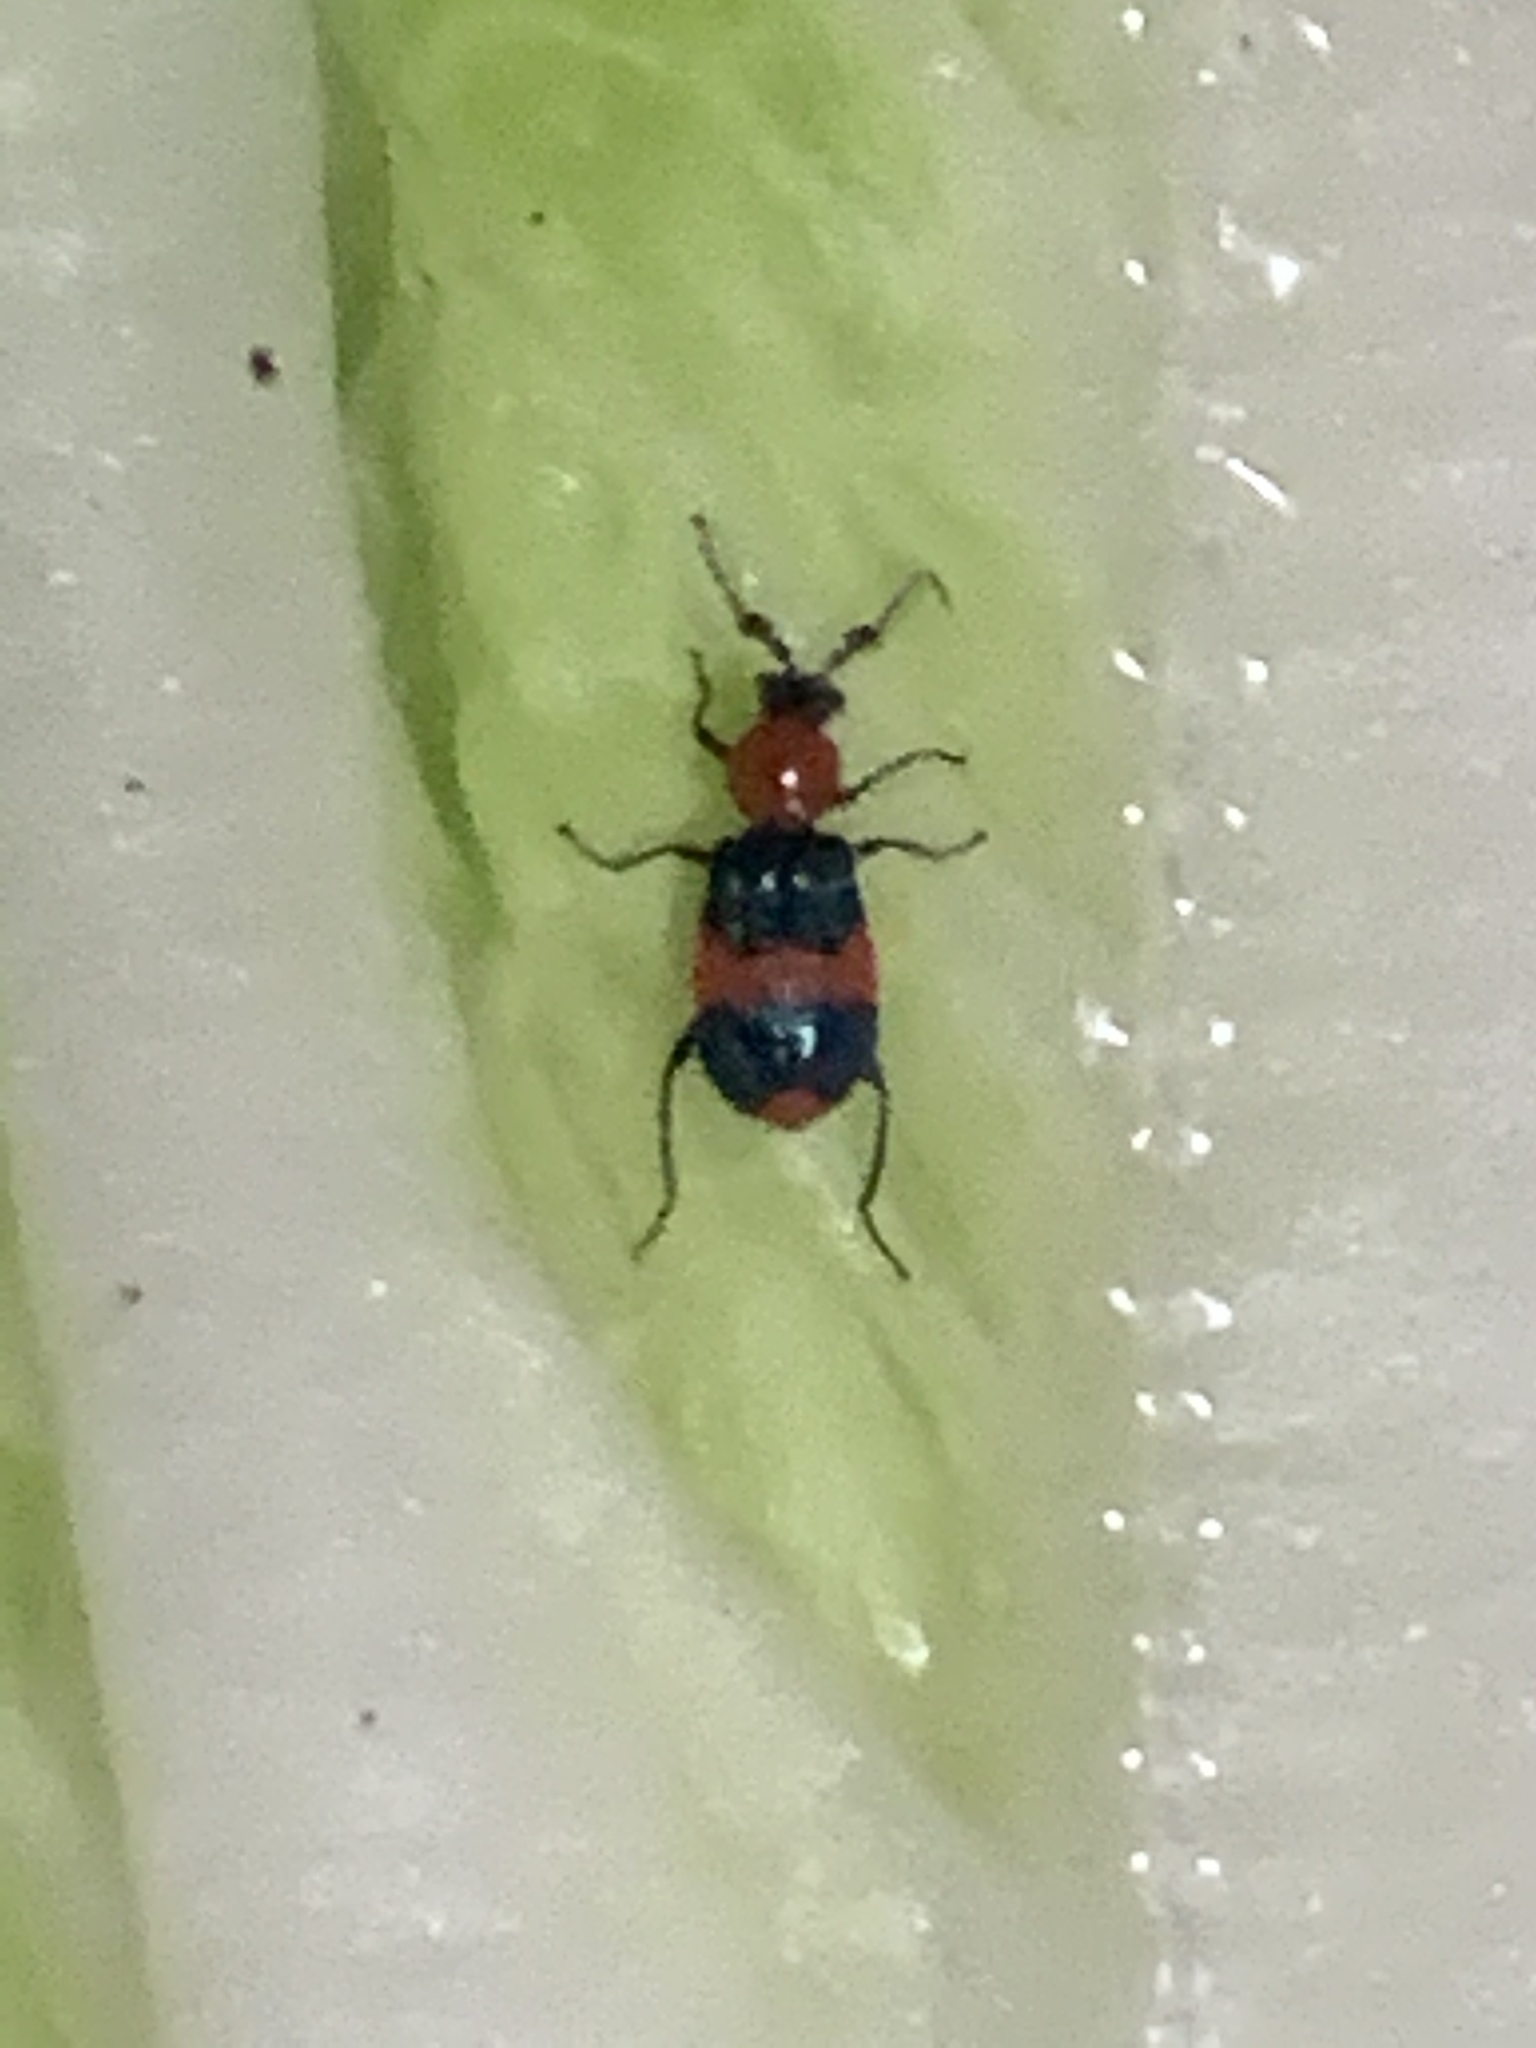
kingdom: Animalia
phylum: Arthropoda
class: Insecta
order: Coleoptera
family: Melyridae
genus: Dicranolaius
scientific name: Dicranolaius bellulus
